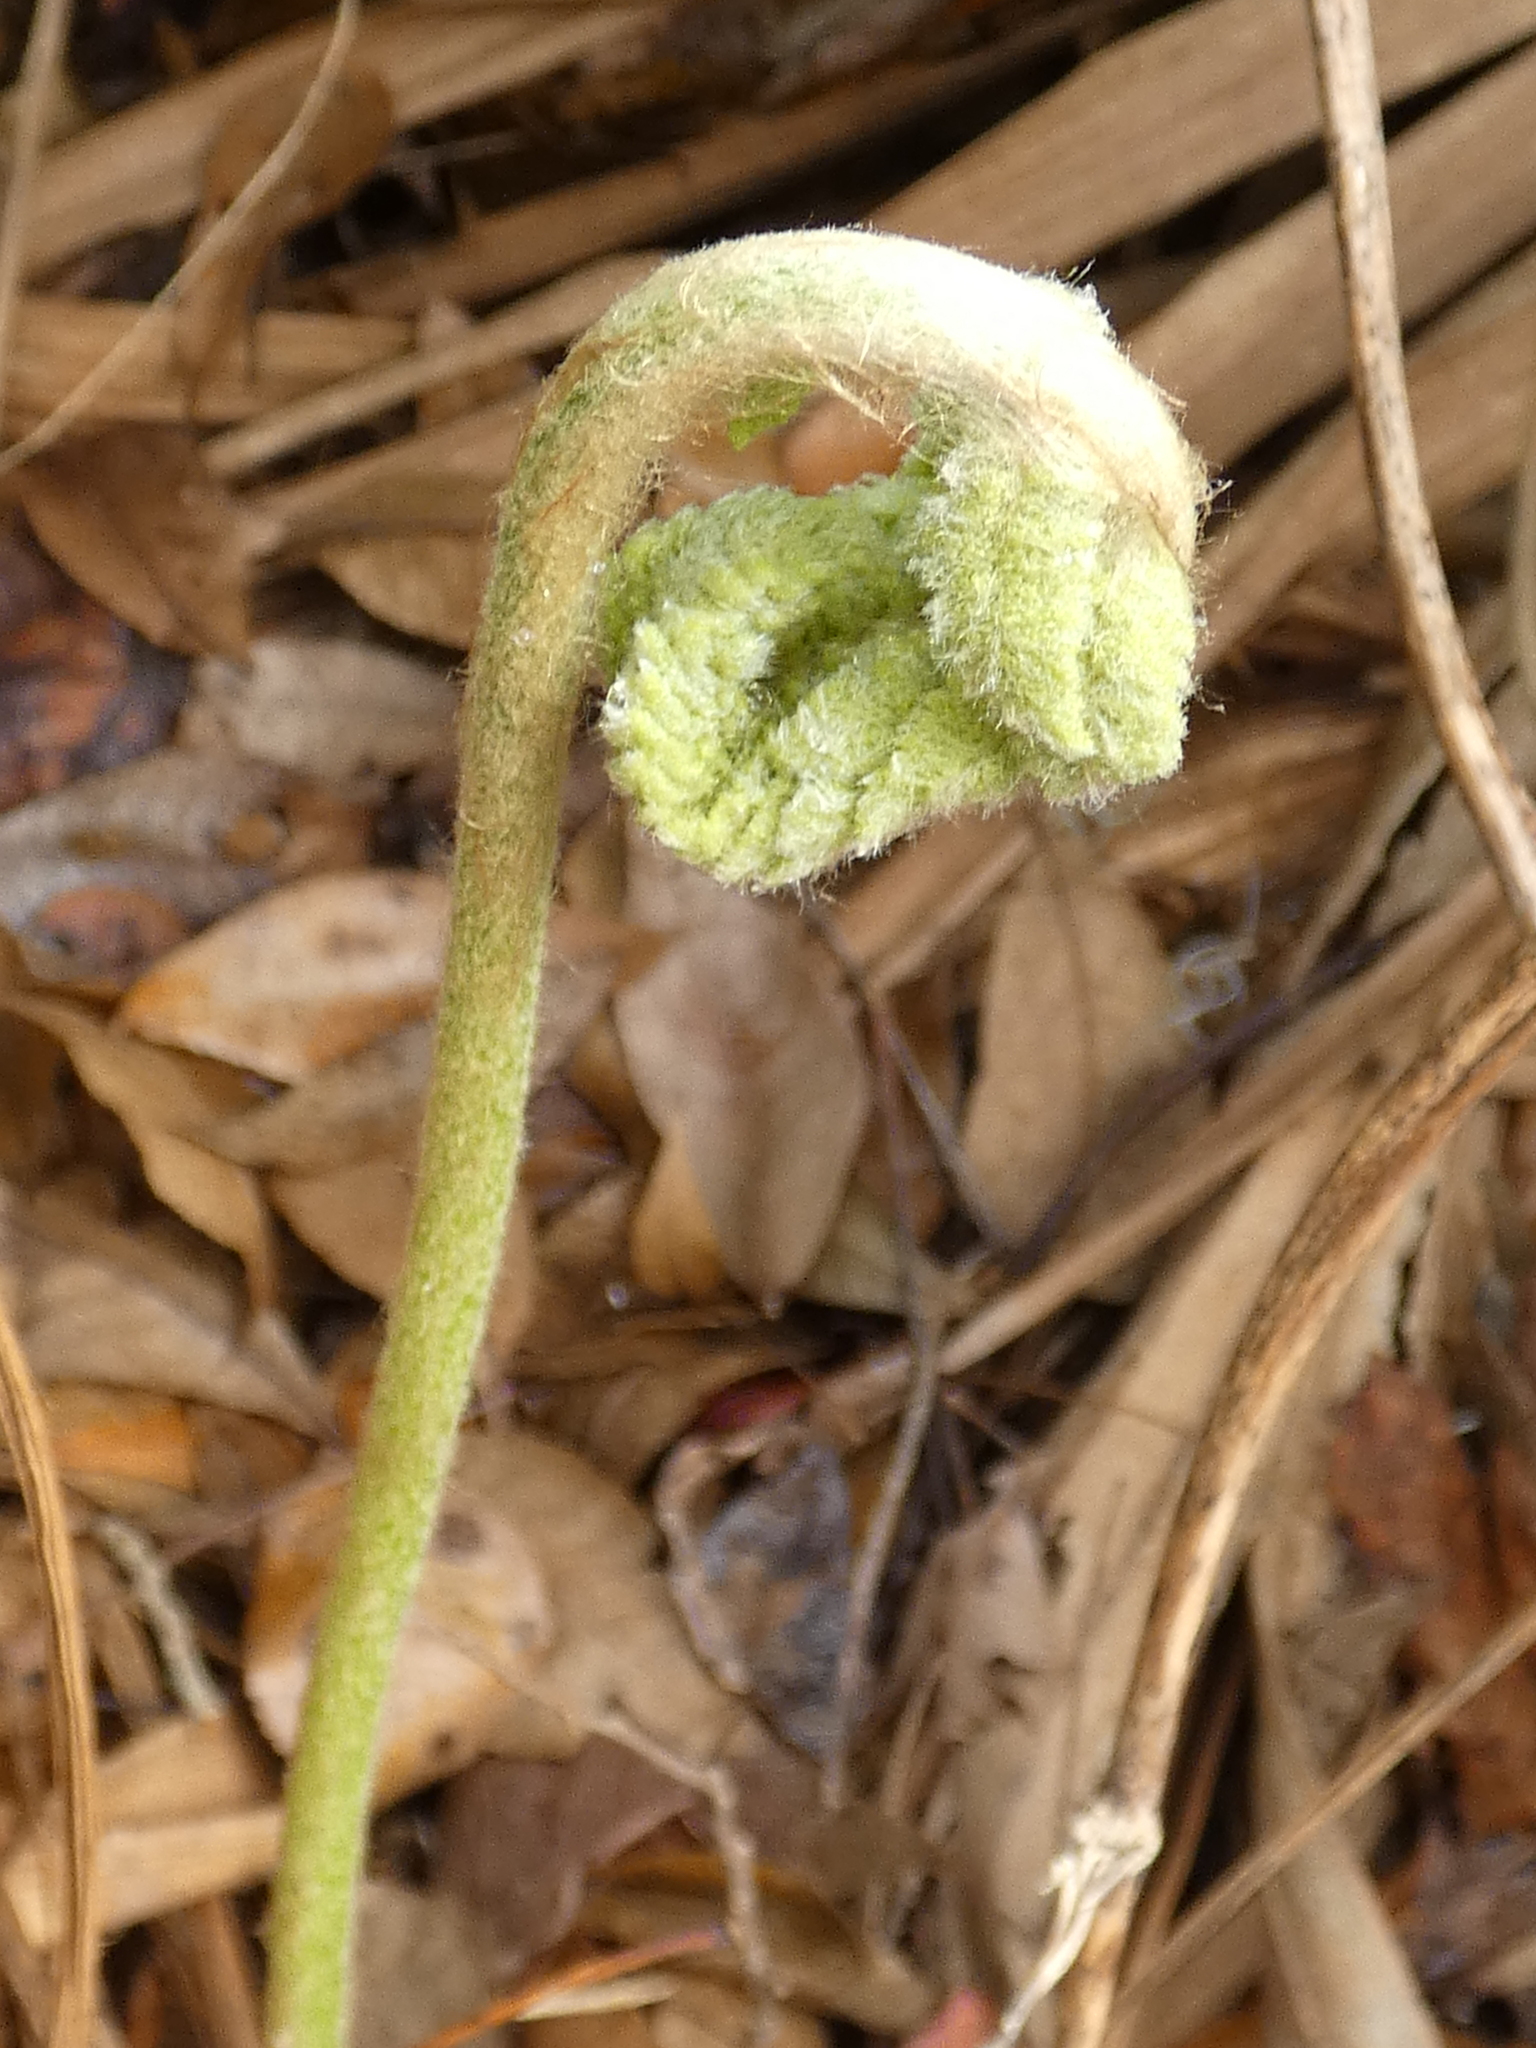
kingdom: Plantae
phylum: Tracheophyta
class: Polypodiopsida
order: Osmundales
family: Osmundaceae
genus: Osmundastrum
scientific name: Osmundastrum cinnamomeum
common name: Cinnamon fern
